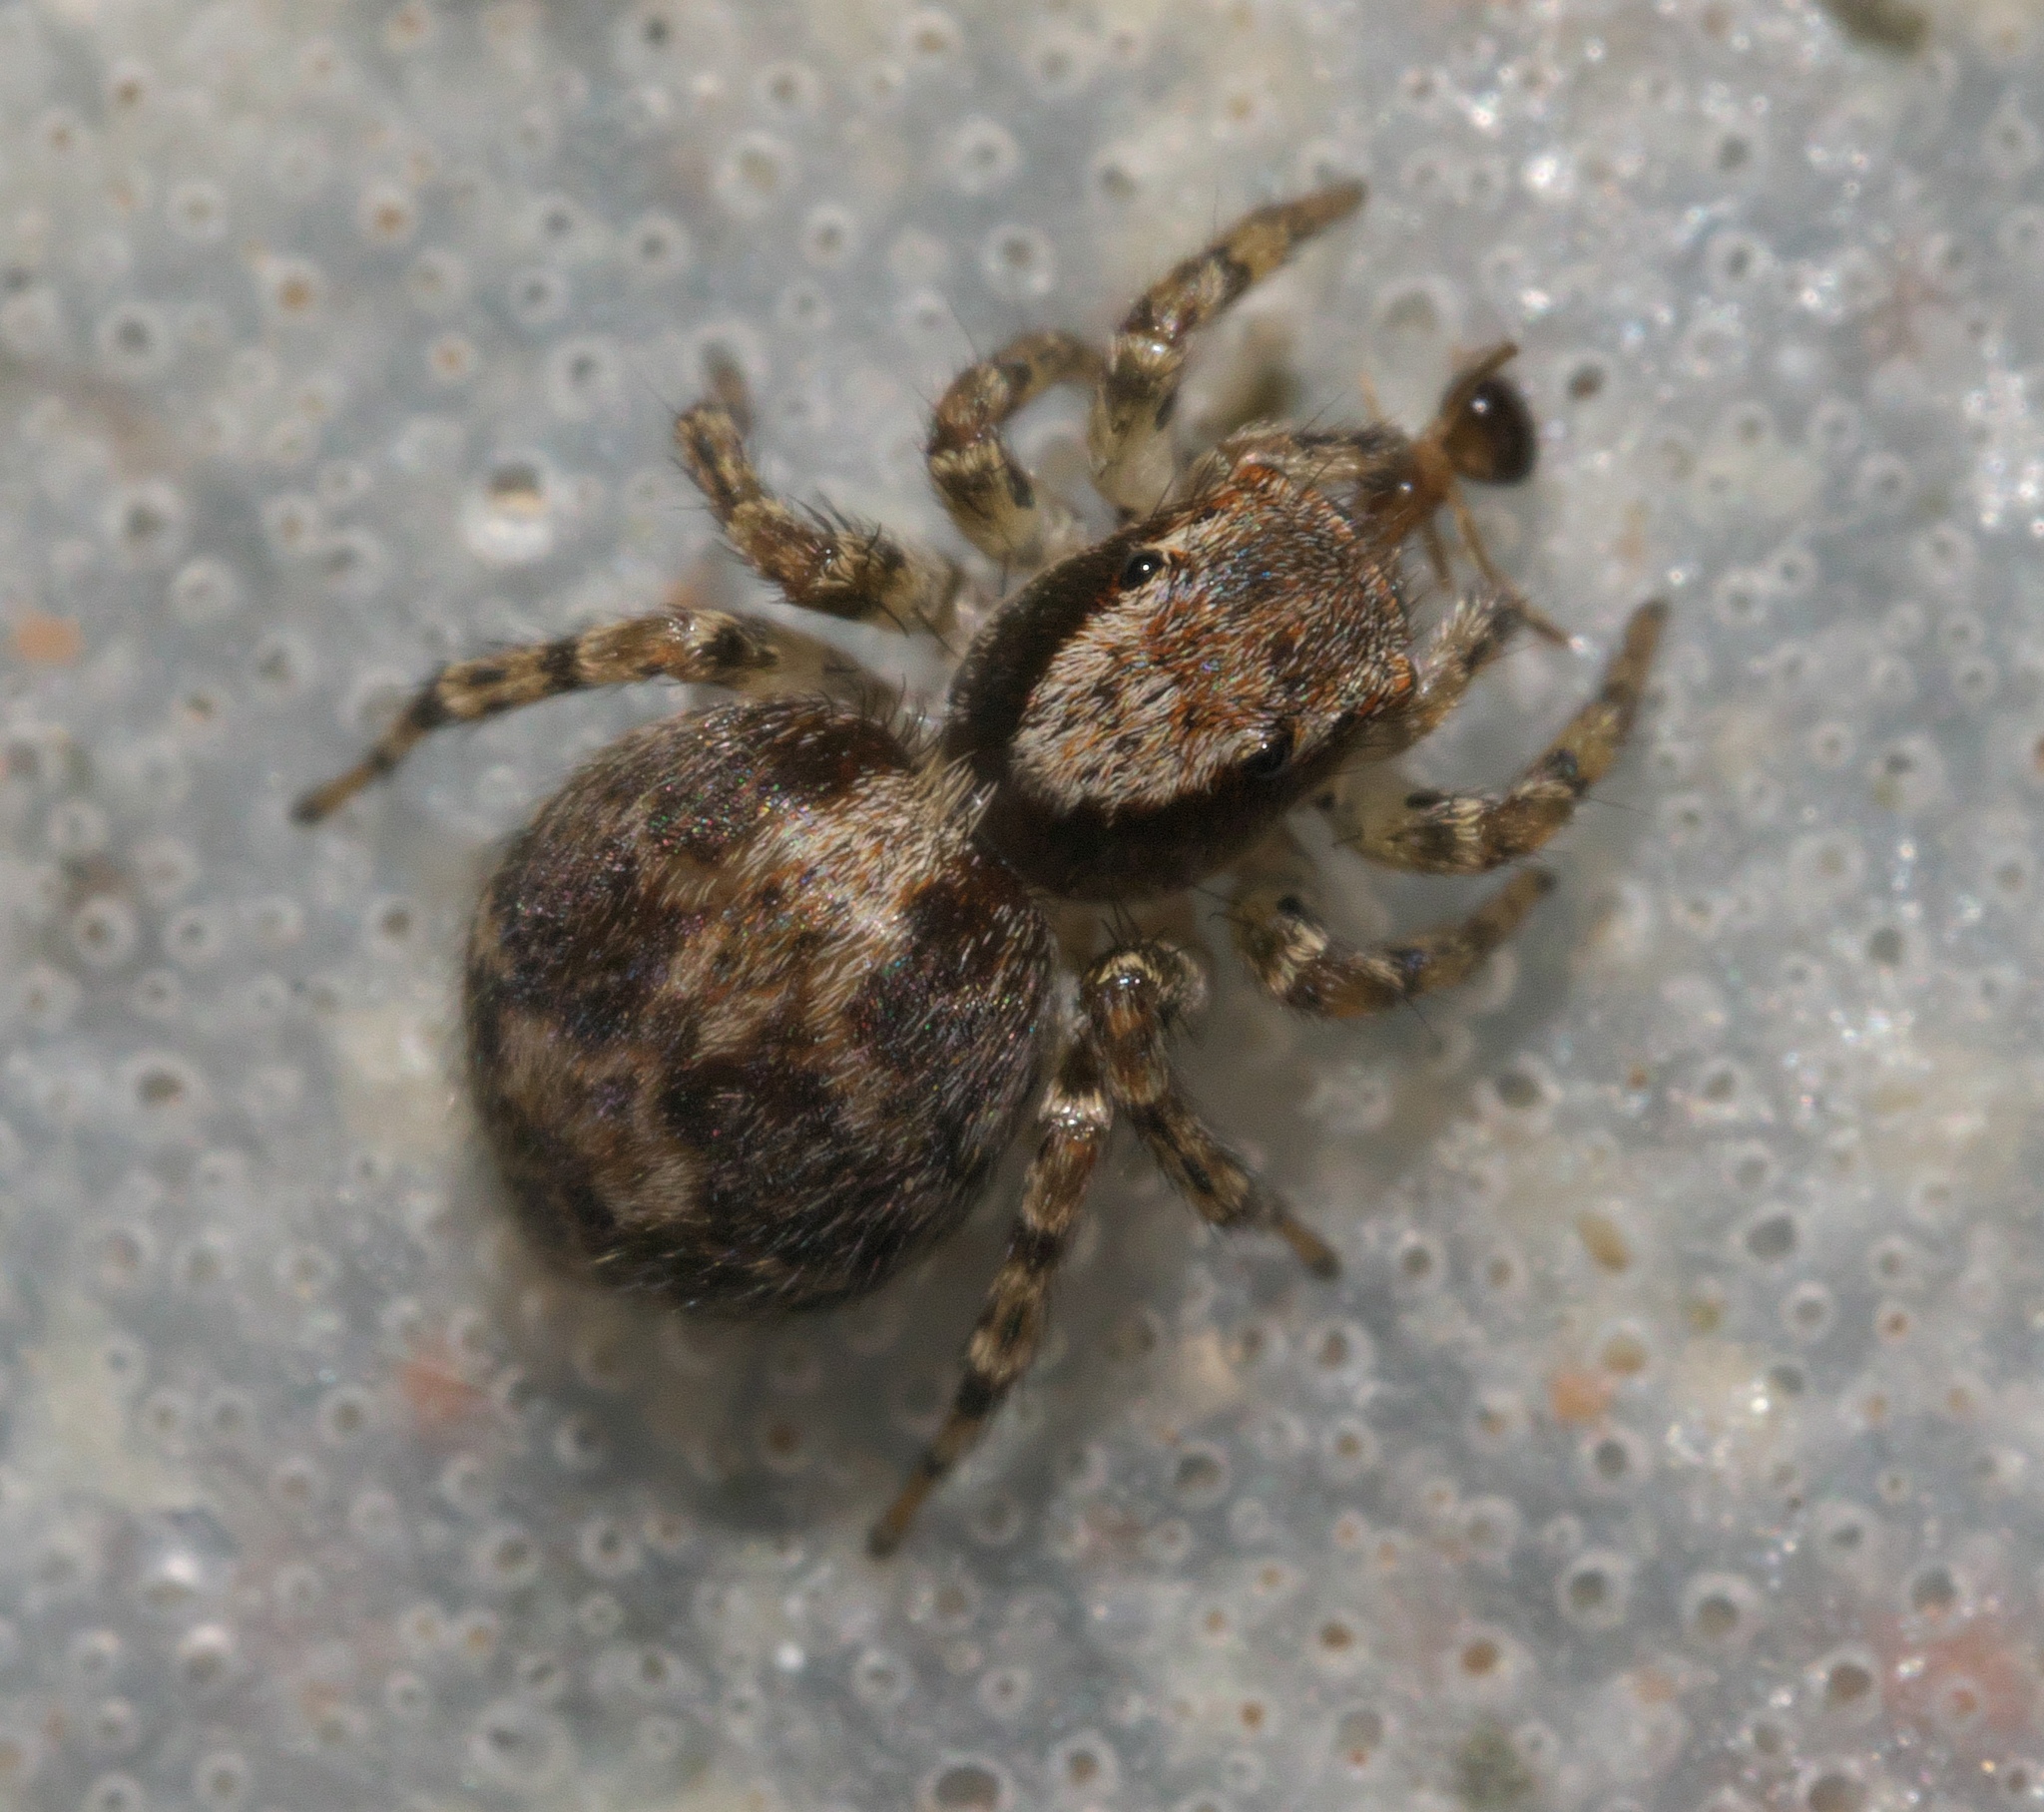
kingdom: Animalia
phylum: Arthropoda
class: Arachnida
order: Araneae
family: Salticidae
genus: Naphrys
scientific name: Naphrys pulex
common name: Flea jumping spider
